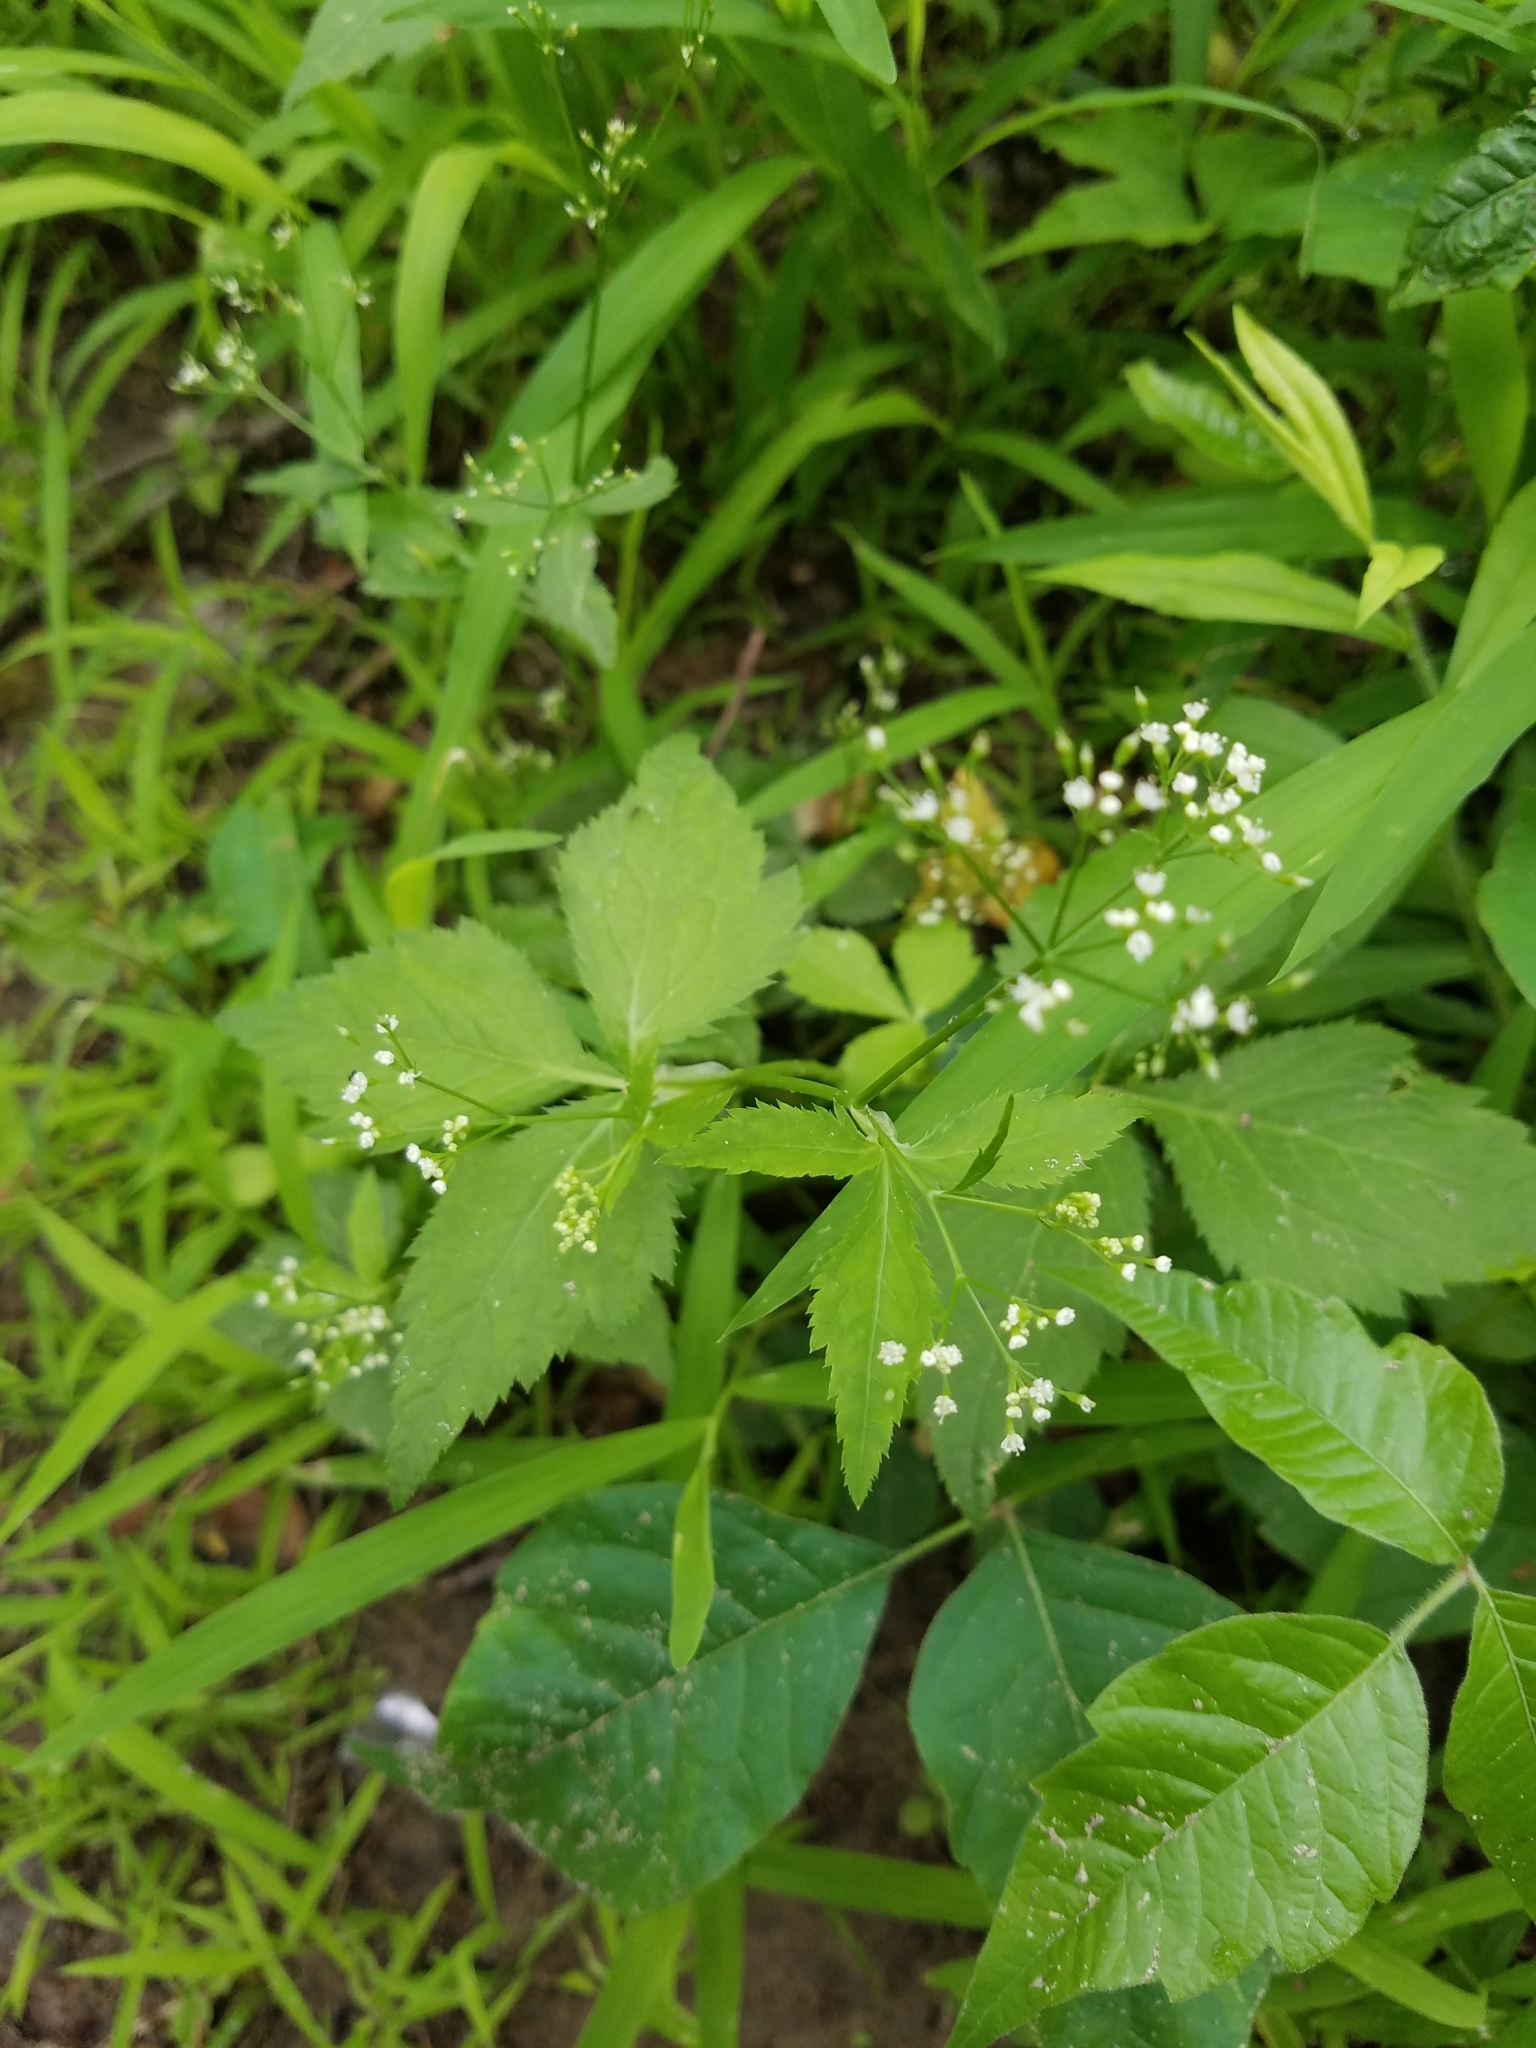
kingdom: Plantae
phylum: Tracheophyta
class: Magnoliopsida
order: Apiales
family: Apiaceae
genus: Cryptotaenia
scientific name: Cryptotaenia canadensis
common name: Honewort
